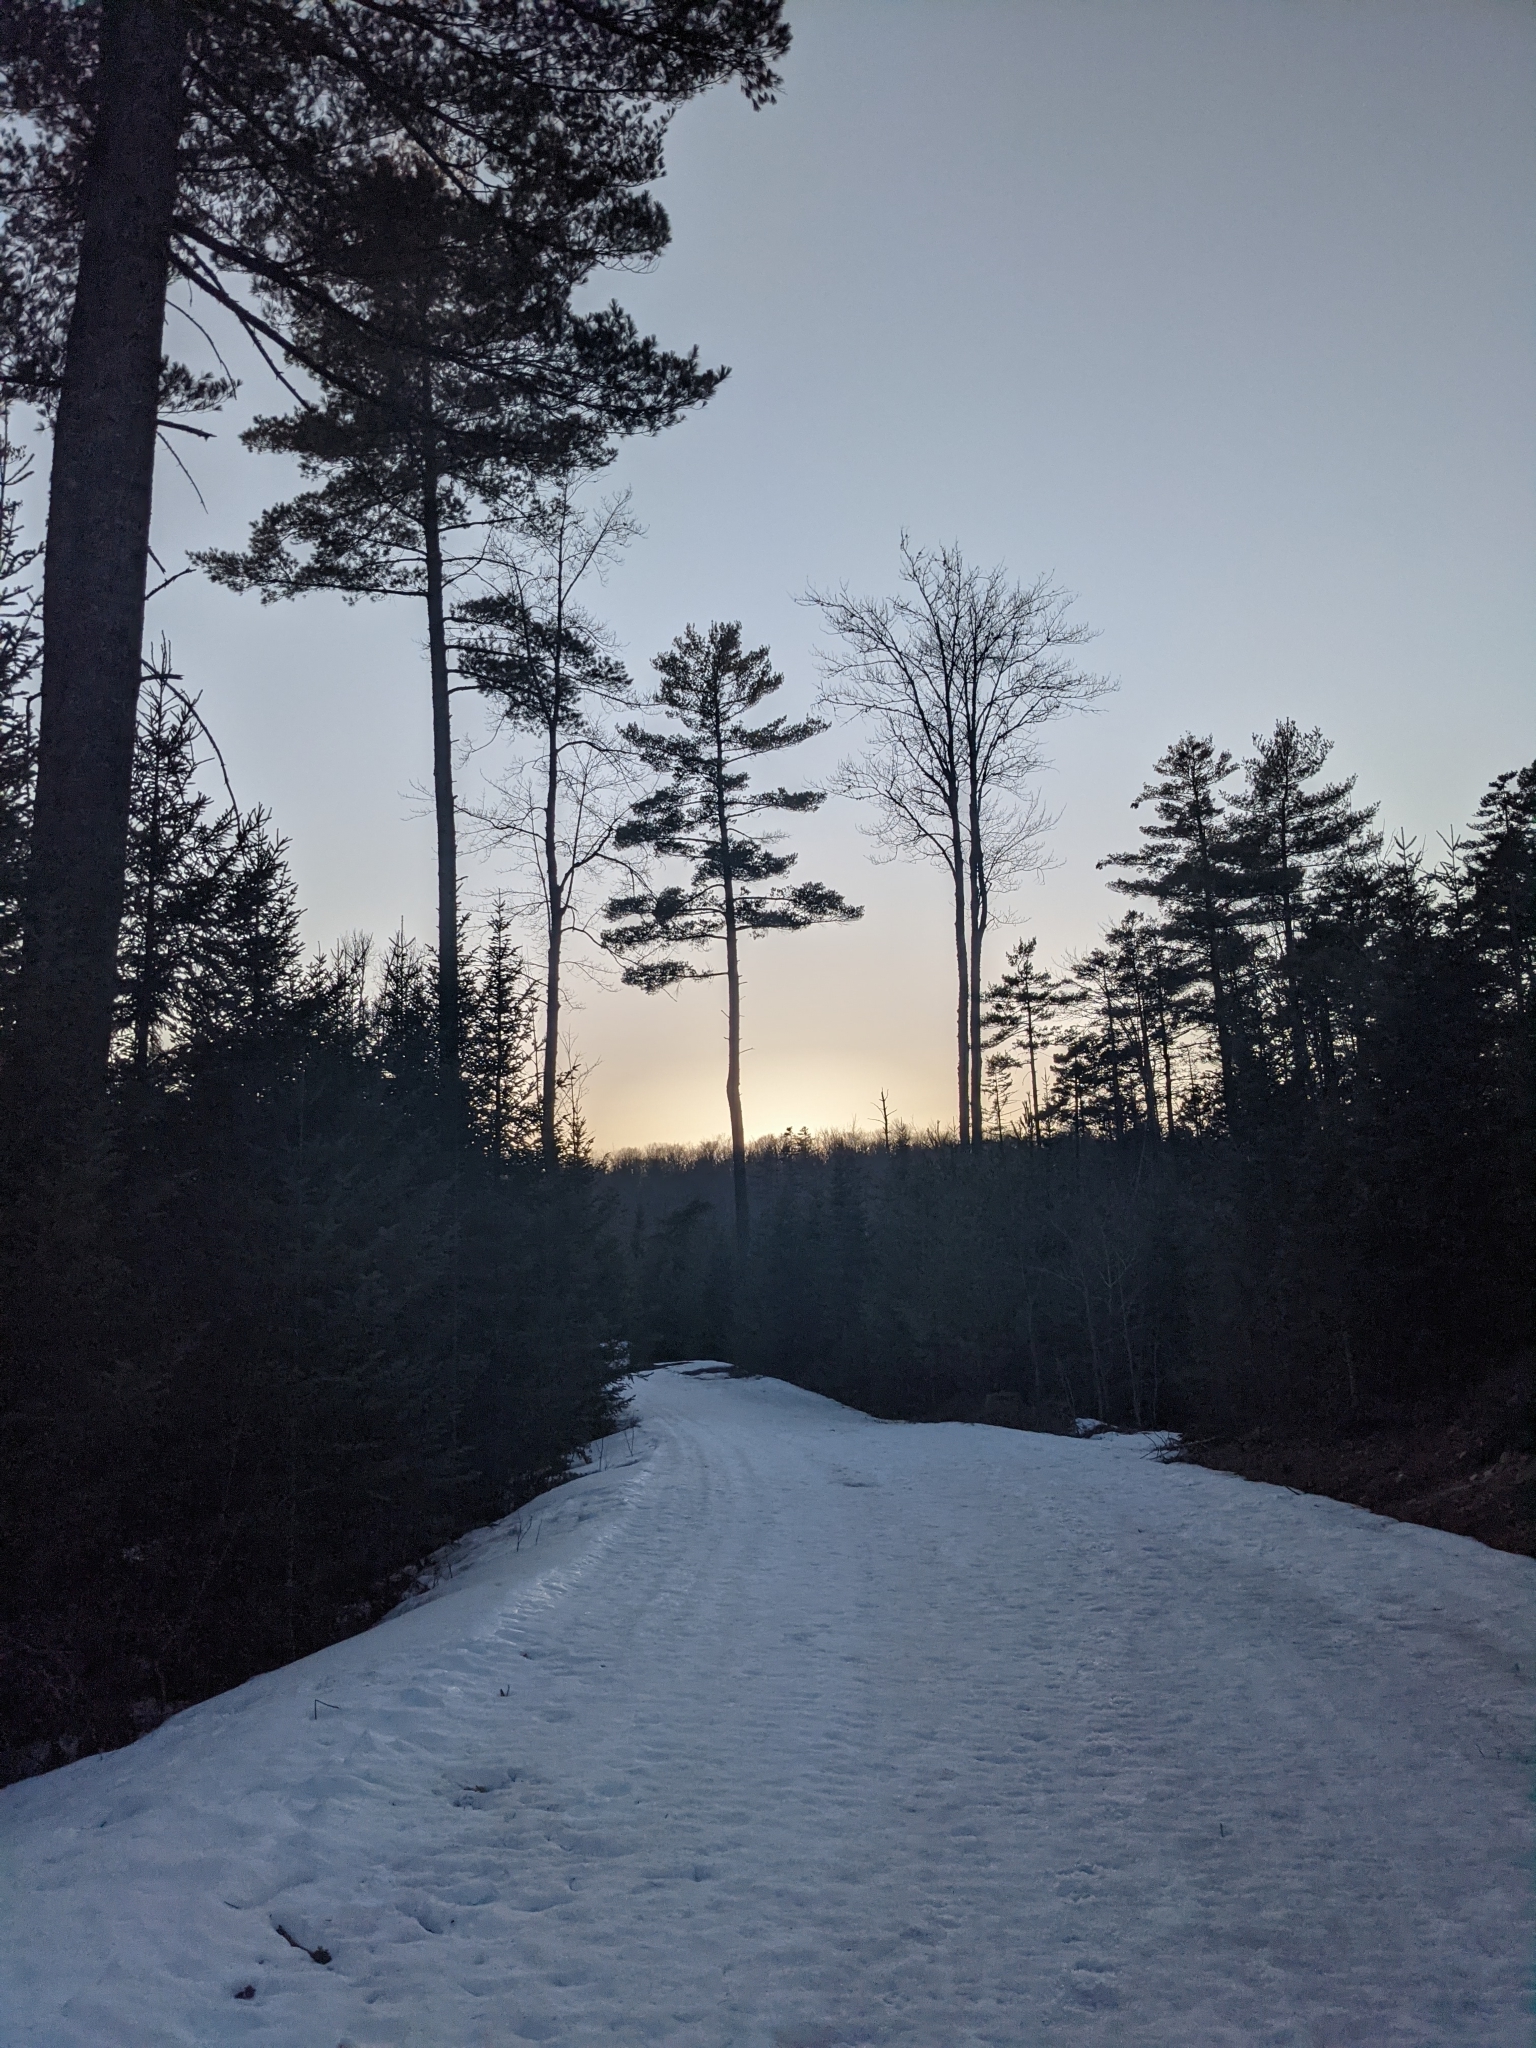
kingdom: Plantae
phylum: Tracheophyta
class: Pinopsida
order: Pinales
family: Pinaceae
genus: Pinus
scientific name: Pinus strobus
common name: Weymouth pine
